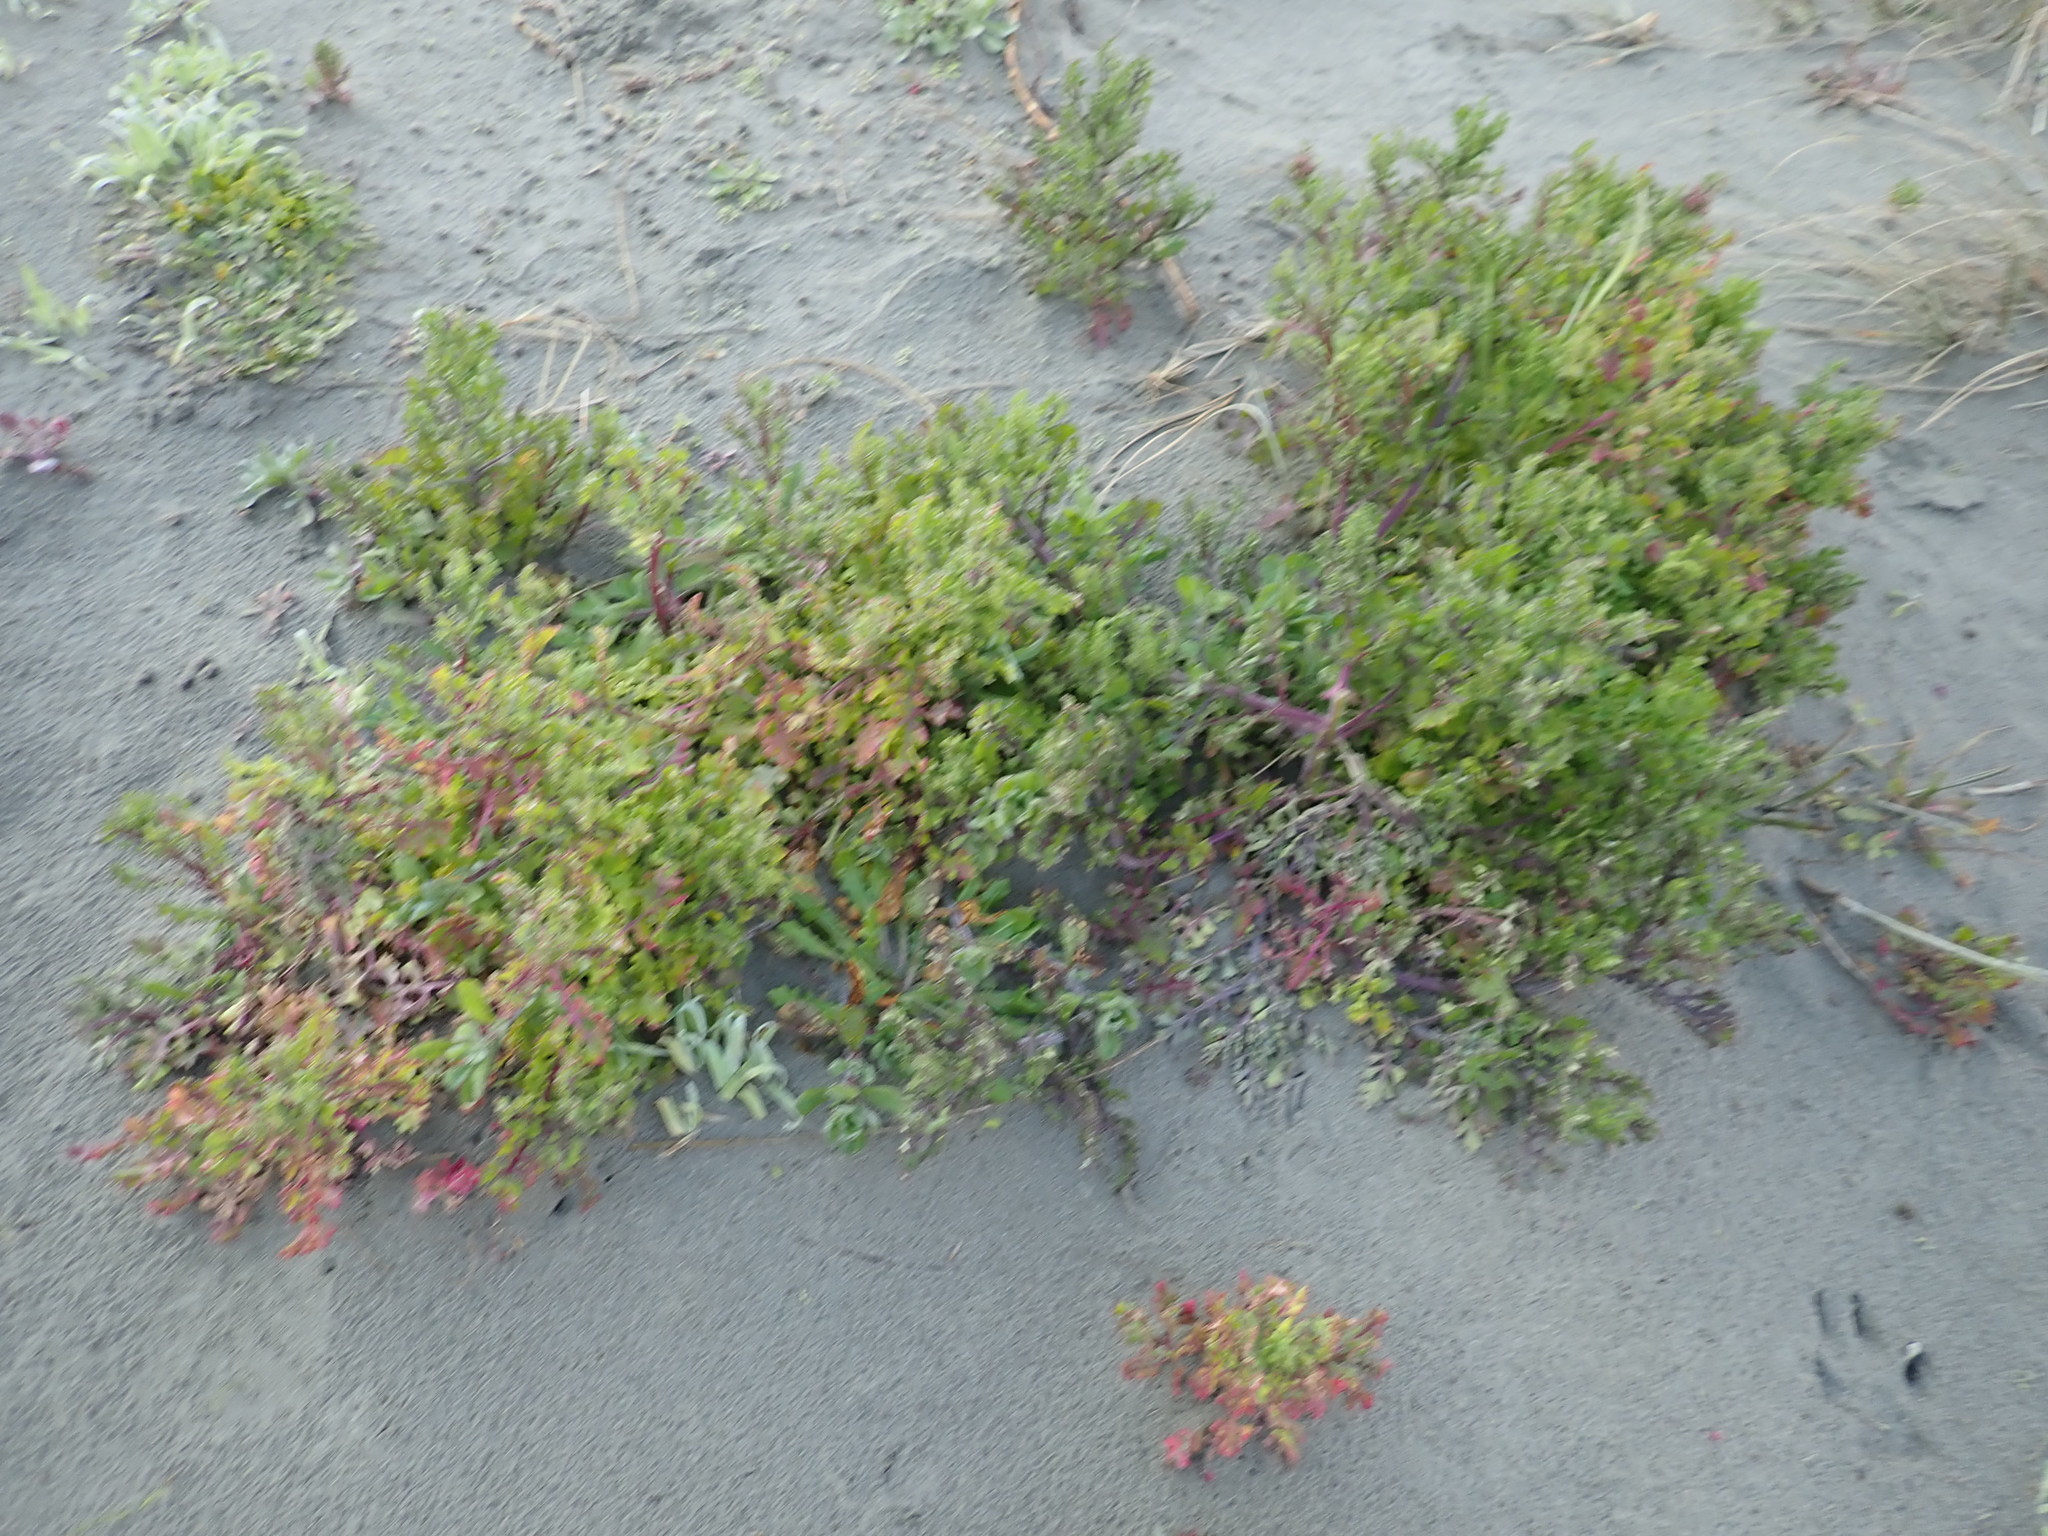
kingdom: Plantae
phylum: Tracheophyta
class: Magnoliopsida
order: Asterales
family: Asteraceae
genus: Senecio
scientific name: Senecio elegans
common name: Purple groundsel
